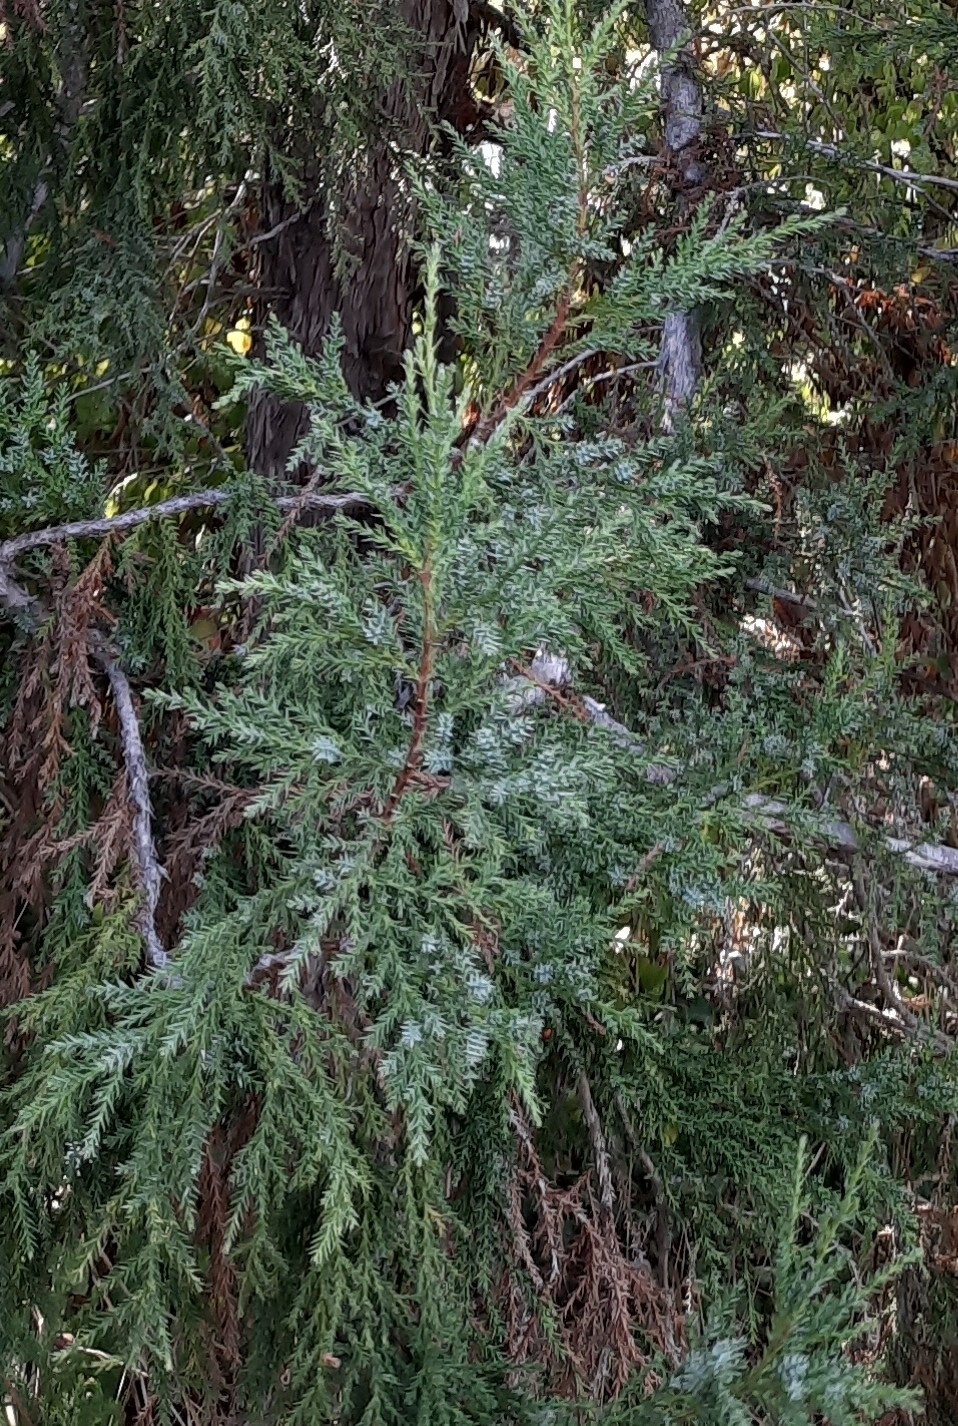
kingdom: Plantae
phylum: Tracheophyta
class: Pinopsida
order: Pinales
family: Cupressaceae
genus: Juniperus
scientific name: Juniperus foetidissima
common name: Stinking juniper
